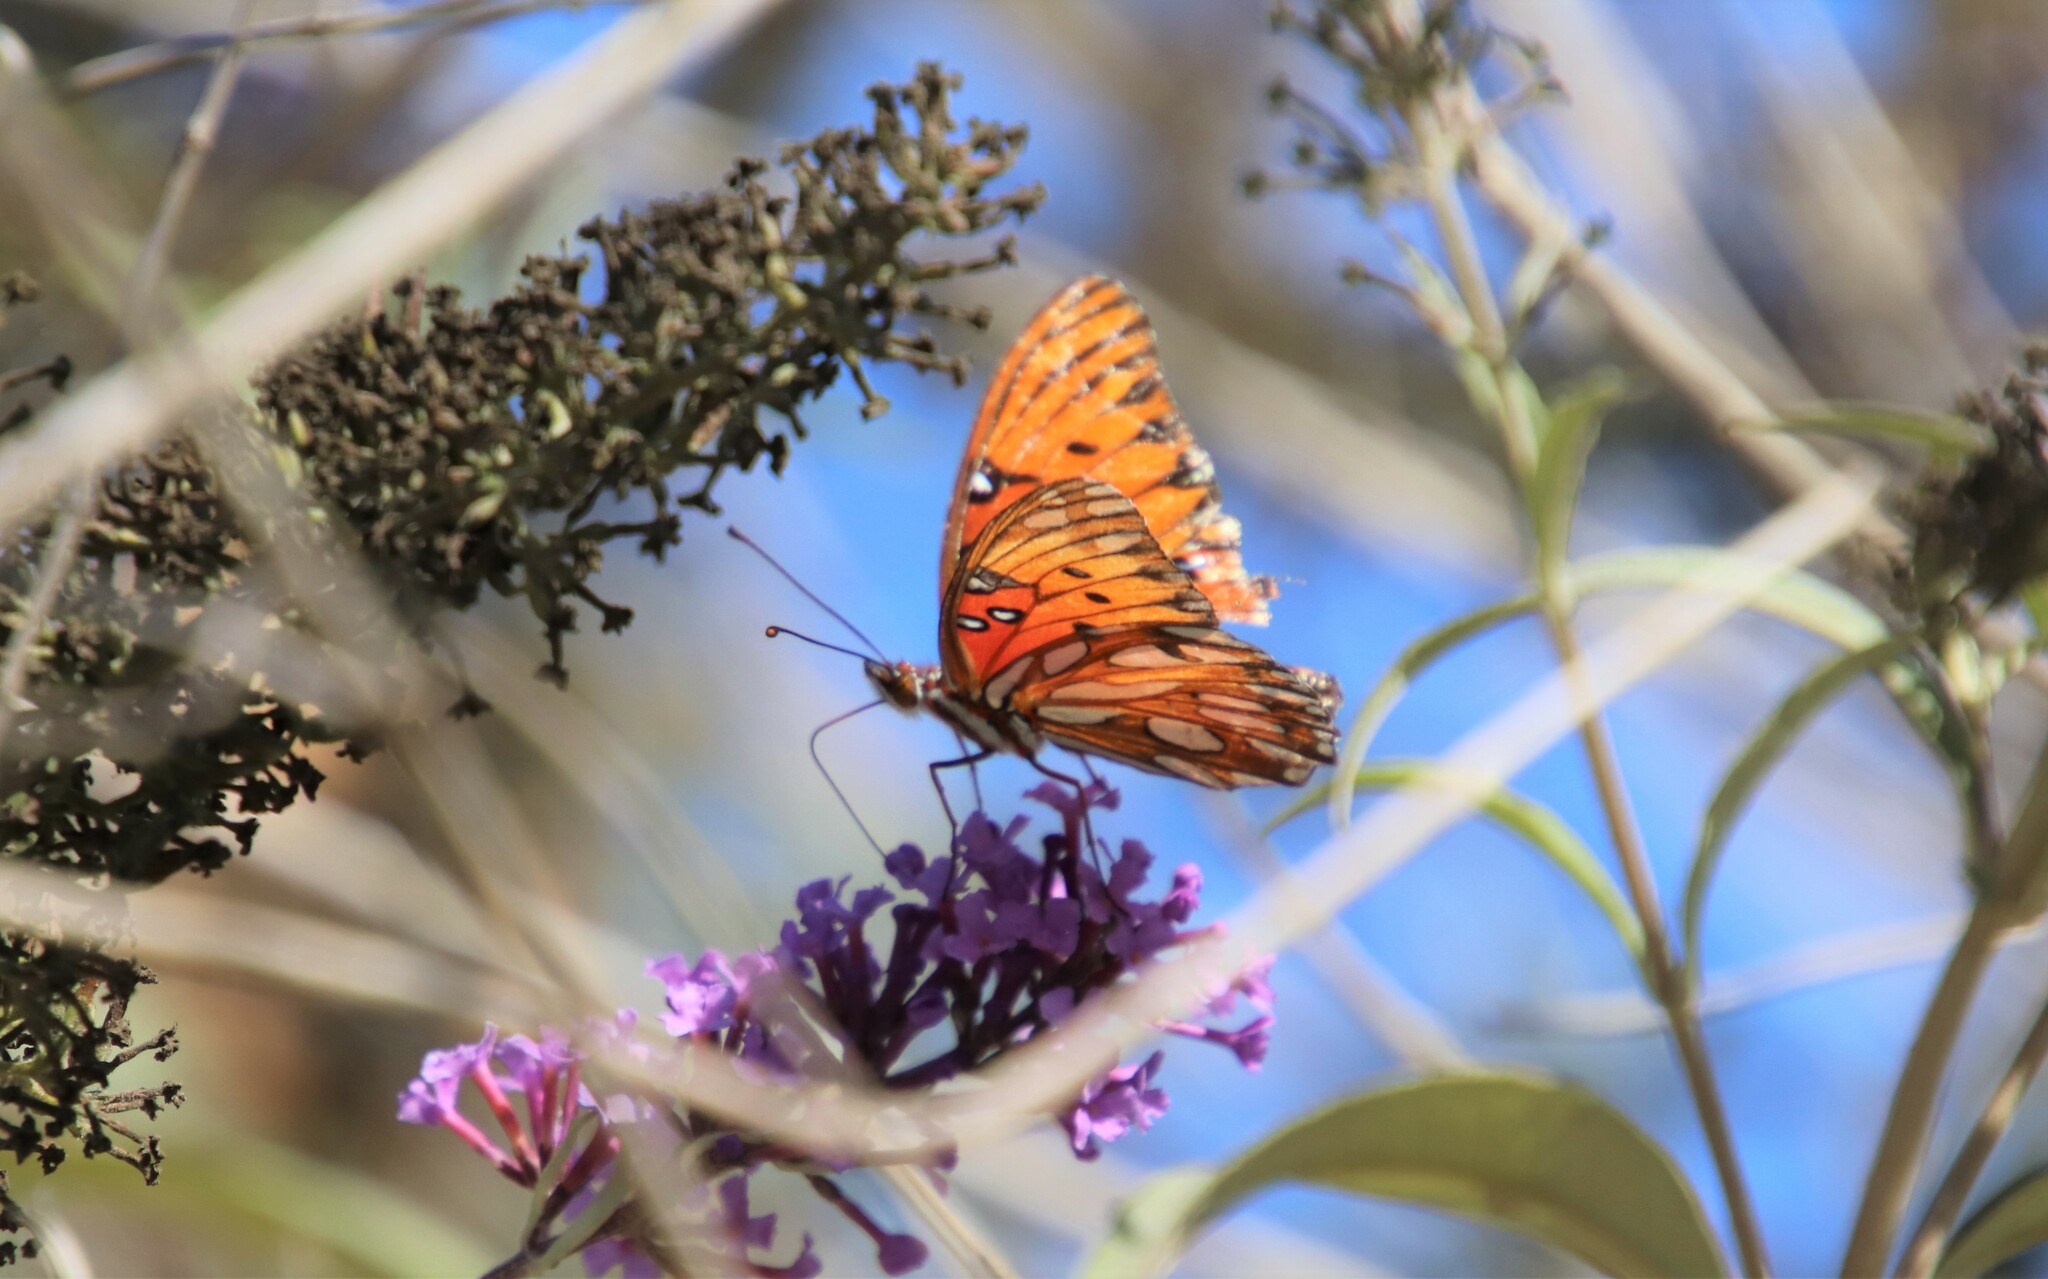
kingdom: Animalia
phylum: Arthropoda
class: Insecta
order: Lepidoptera
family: Nymphalidae
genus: Dione
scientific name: Dione vanillae
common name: Gulf fritillary
